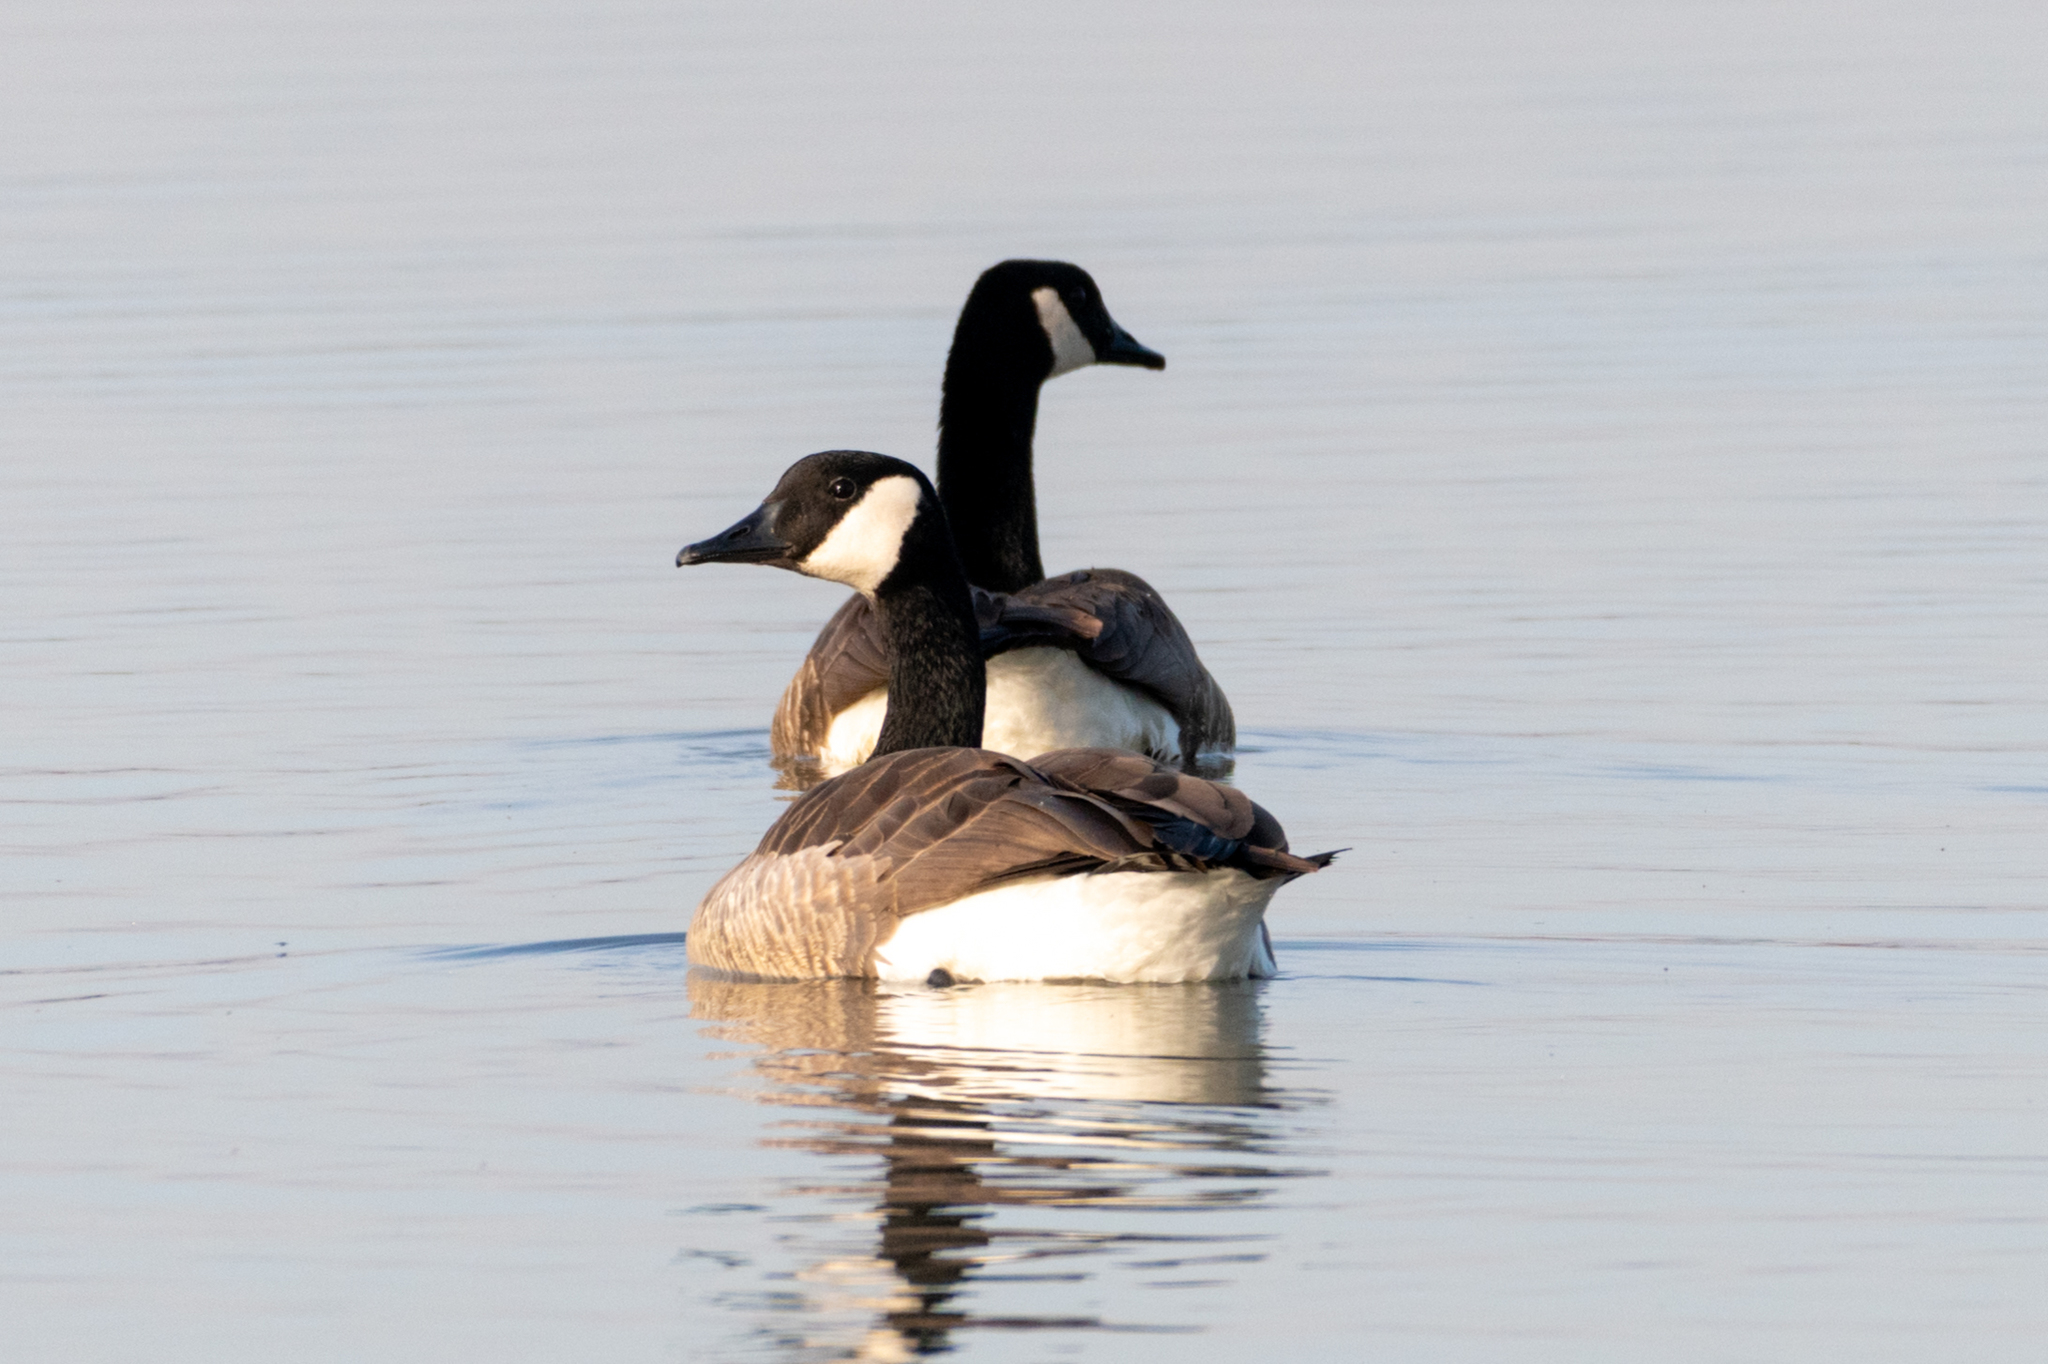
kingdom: Animalia
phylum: Chordata
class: Aves
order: Anseriformes
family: Anatidae
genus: Branta
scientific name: Branta canadensis
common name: Canada goose
